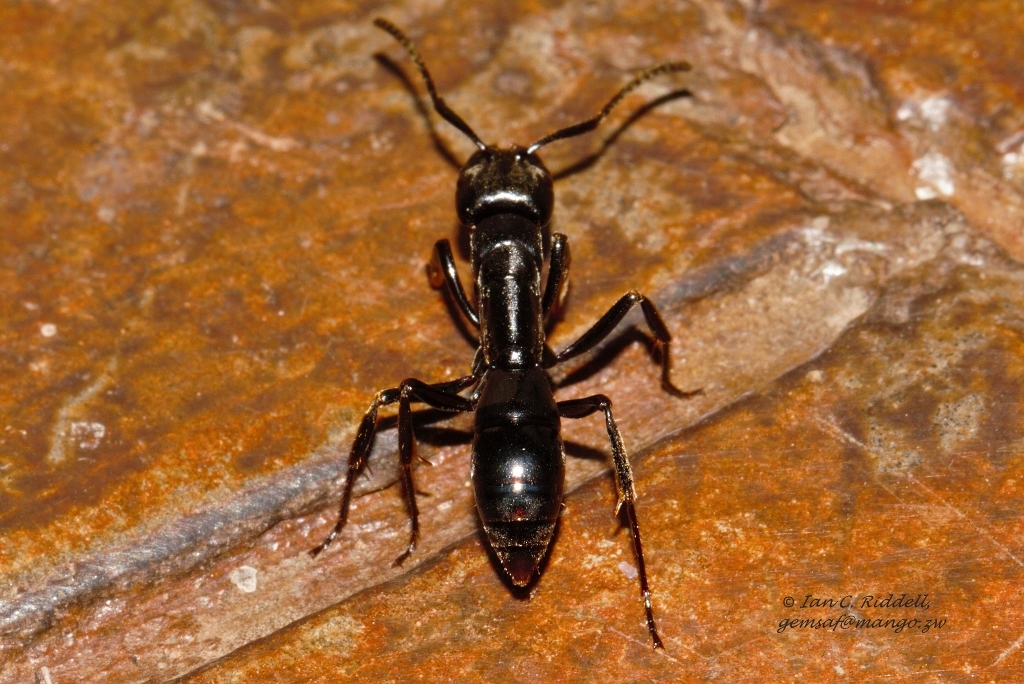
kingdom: Animalia
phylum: Arthropoda
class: Insecta
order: Hymenoptera
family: Formicidae
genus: Paltothyreus
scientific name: Paltothyreus tarsatus
